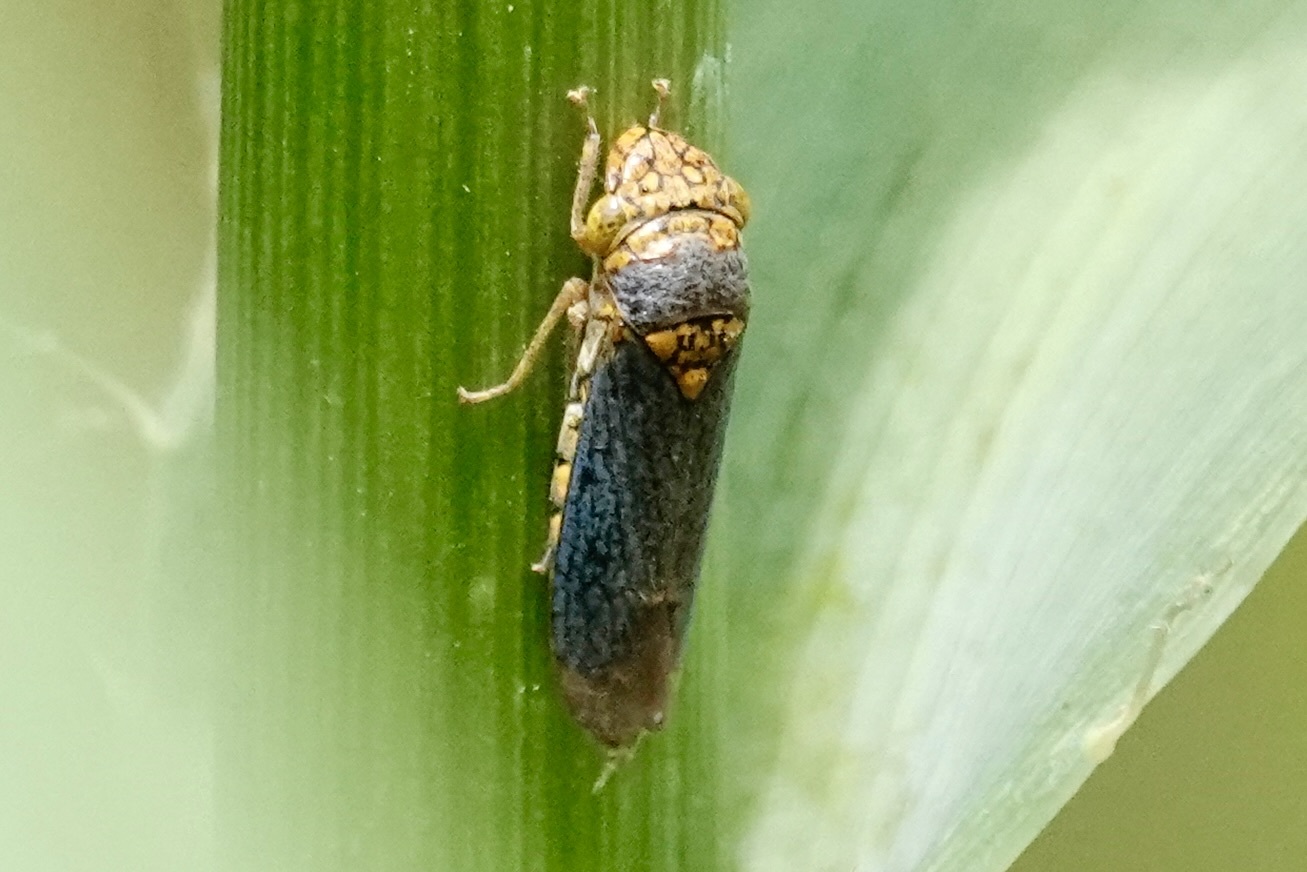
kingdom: Animalia
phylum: Arthropoda
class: Insecta
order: Hemiptera
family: Cicadellidae
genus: Oncometopia
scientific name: Oncometopia orbona
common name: Broad-headed sharpshooter
